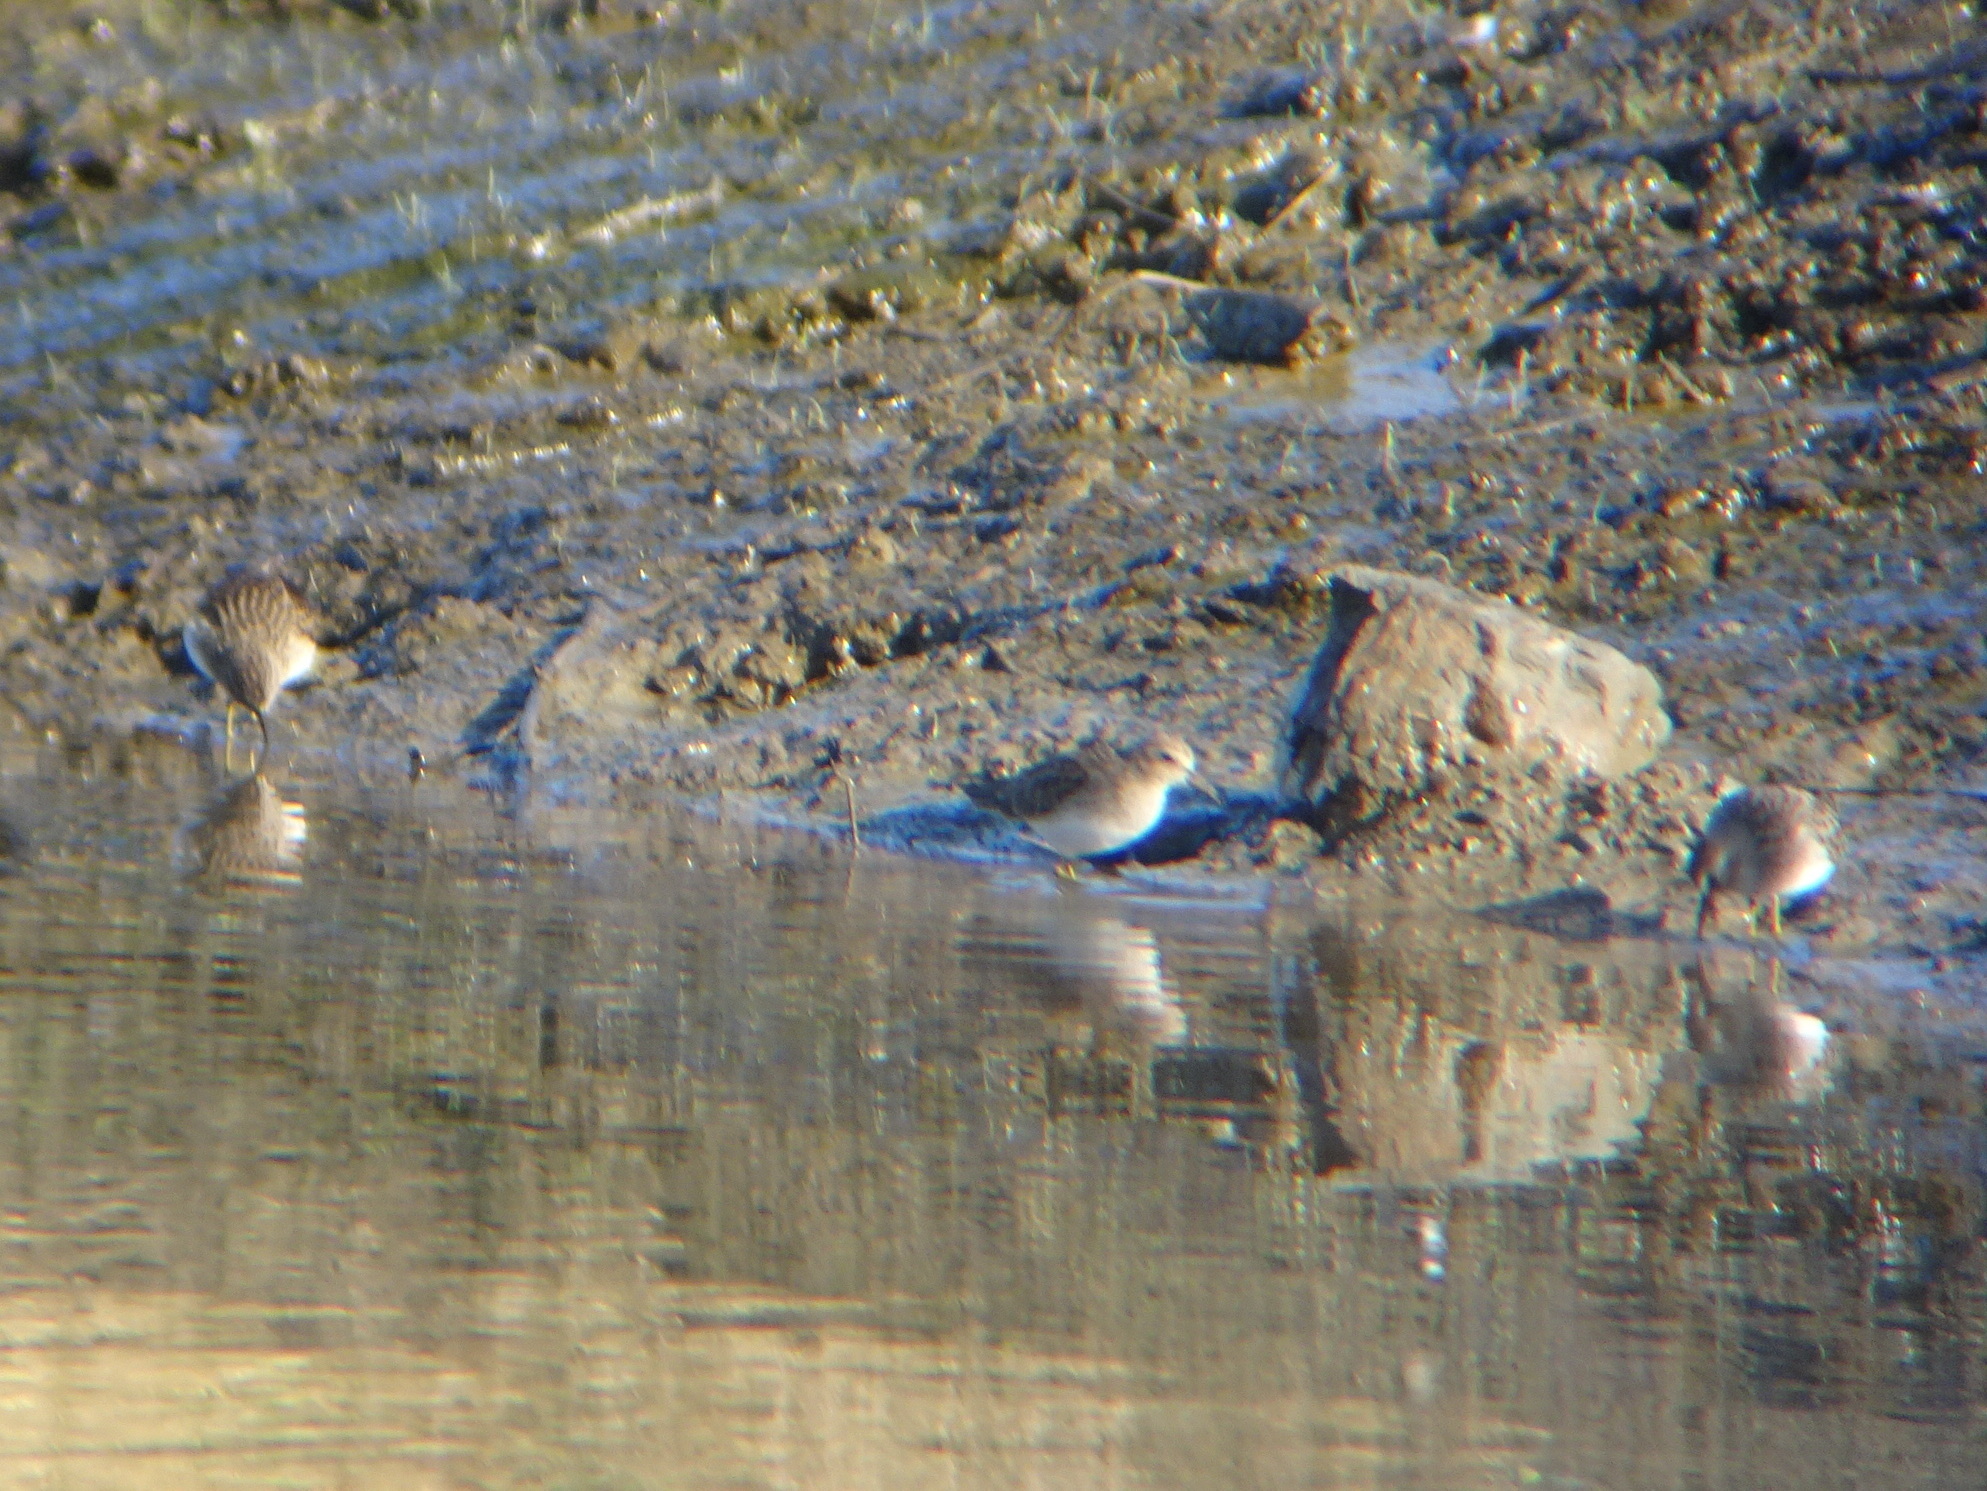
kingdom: Animalia
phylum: Chordata
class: Aves
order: Charadriiformes
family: Scolopacidae
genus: Calidris
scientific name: Calidris minutilla
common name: Least sandpiper
